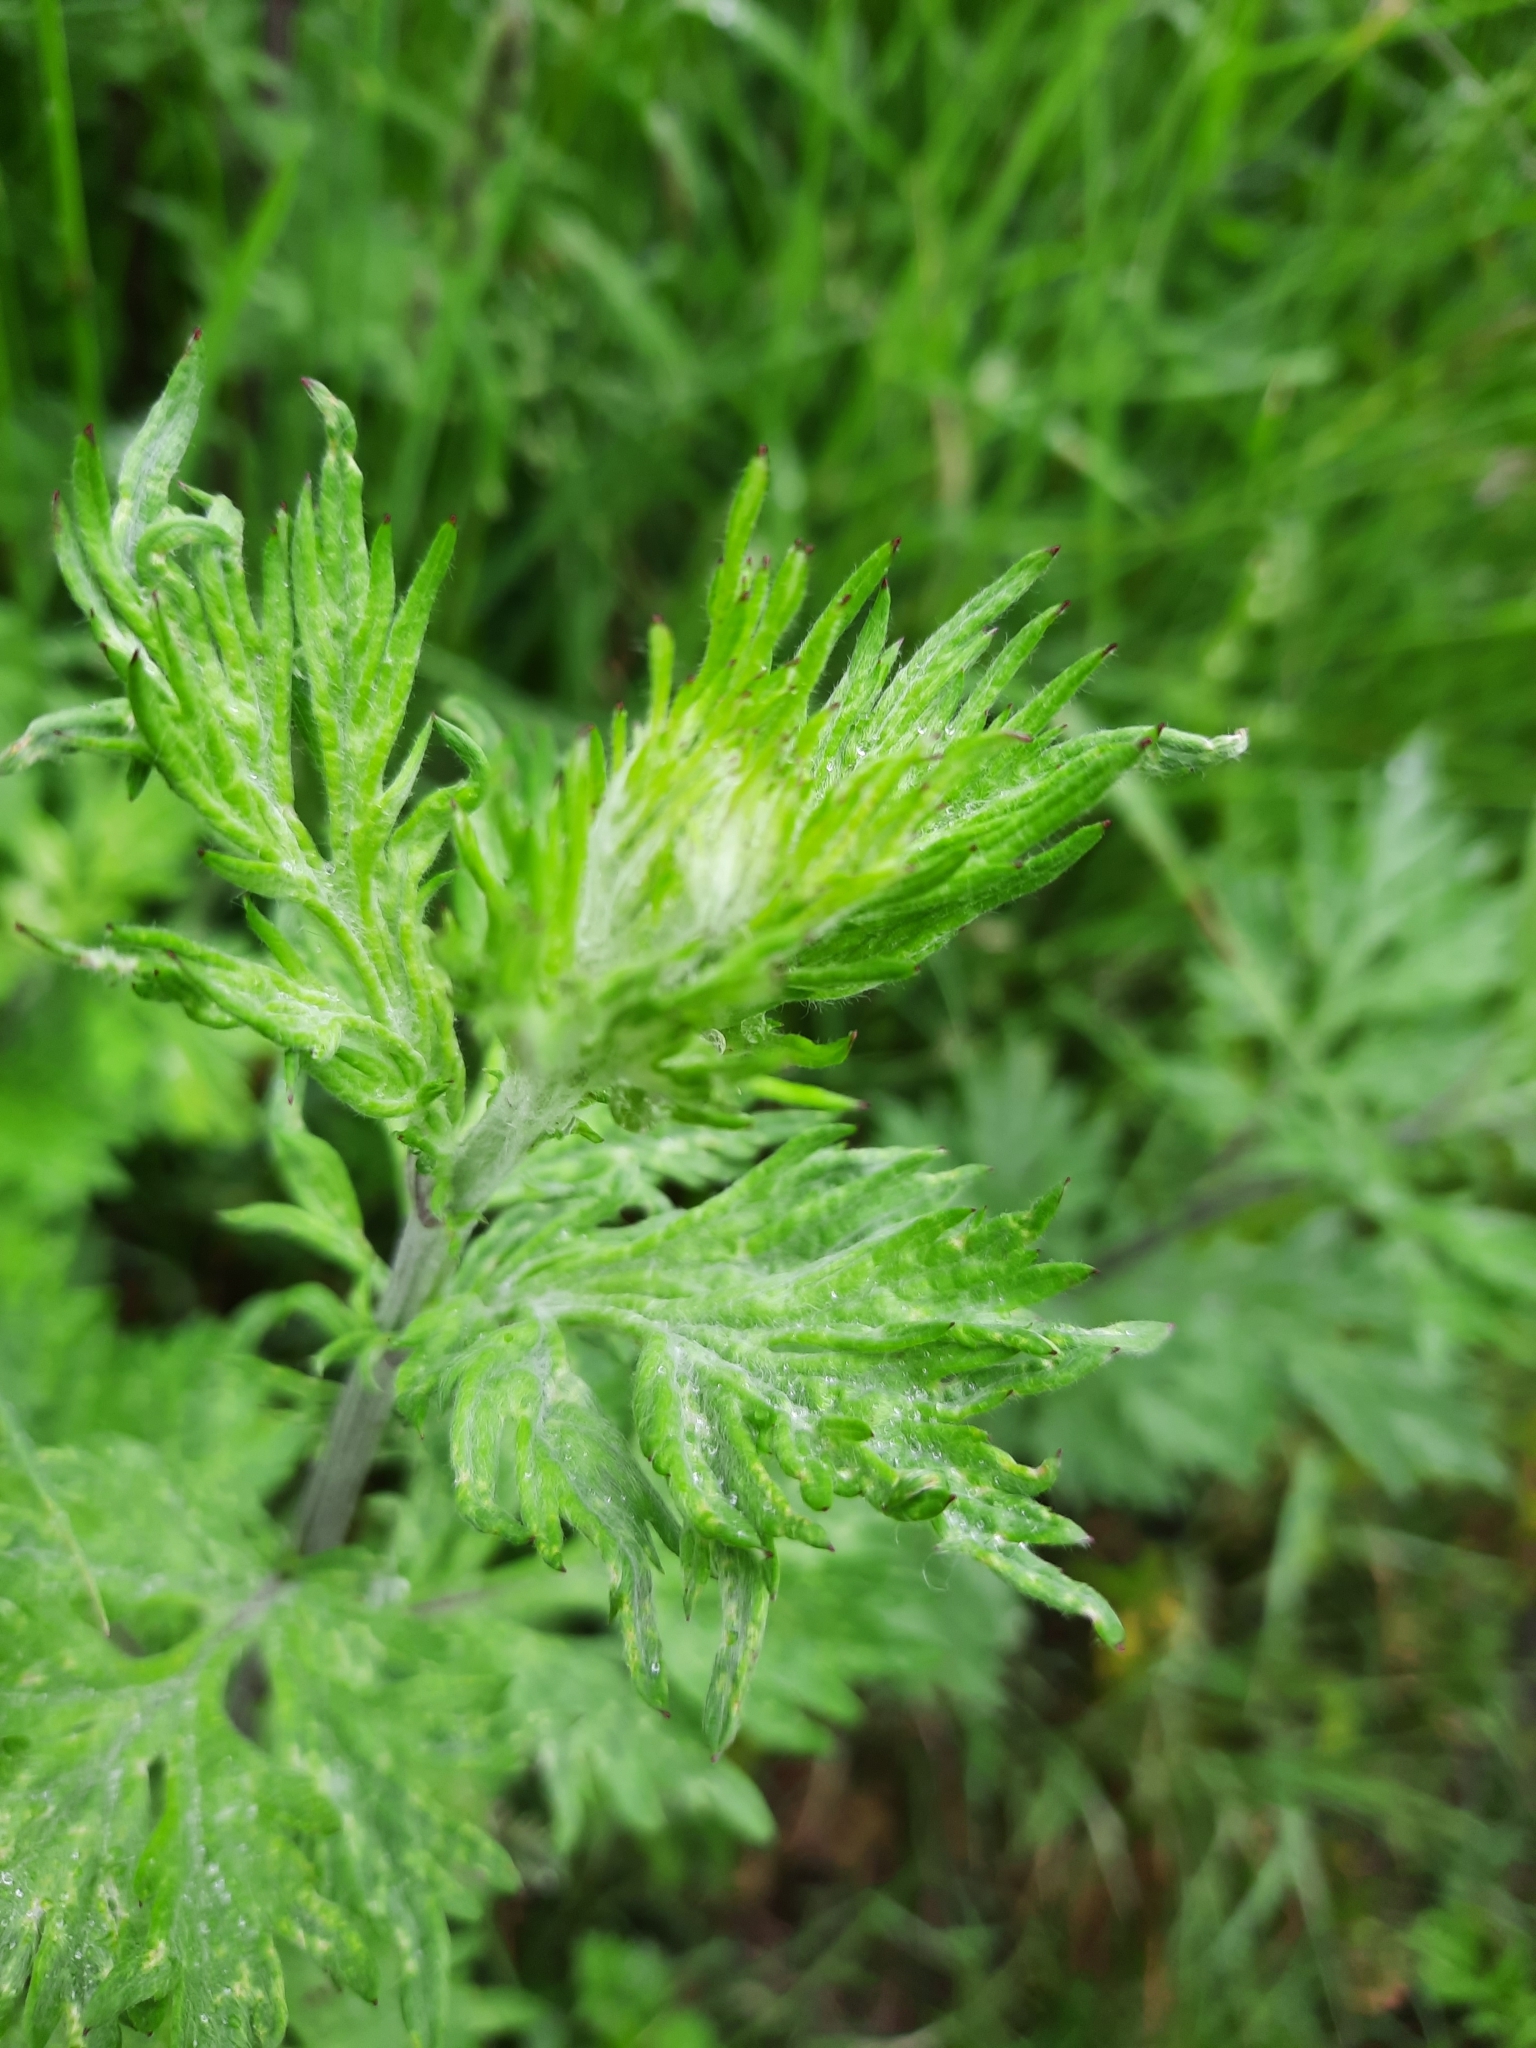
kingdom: Plantae
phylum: Tracheophyta
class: Magnoliopsida
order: Asterales
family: Asteraceae
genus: Artemisia
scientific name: Artemisia vulgaris
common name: Mugwort
